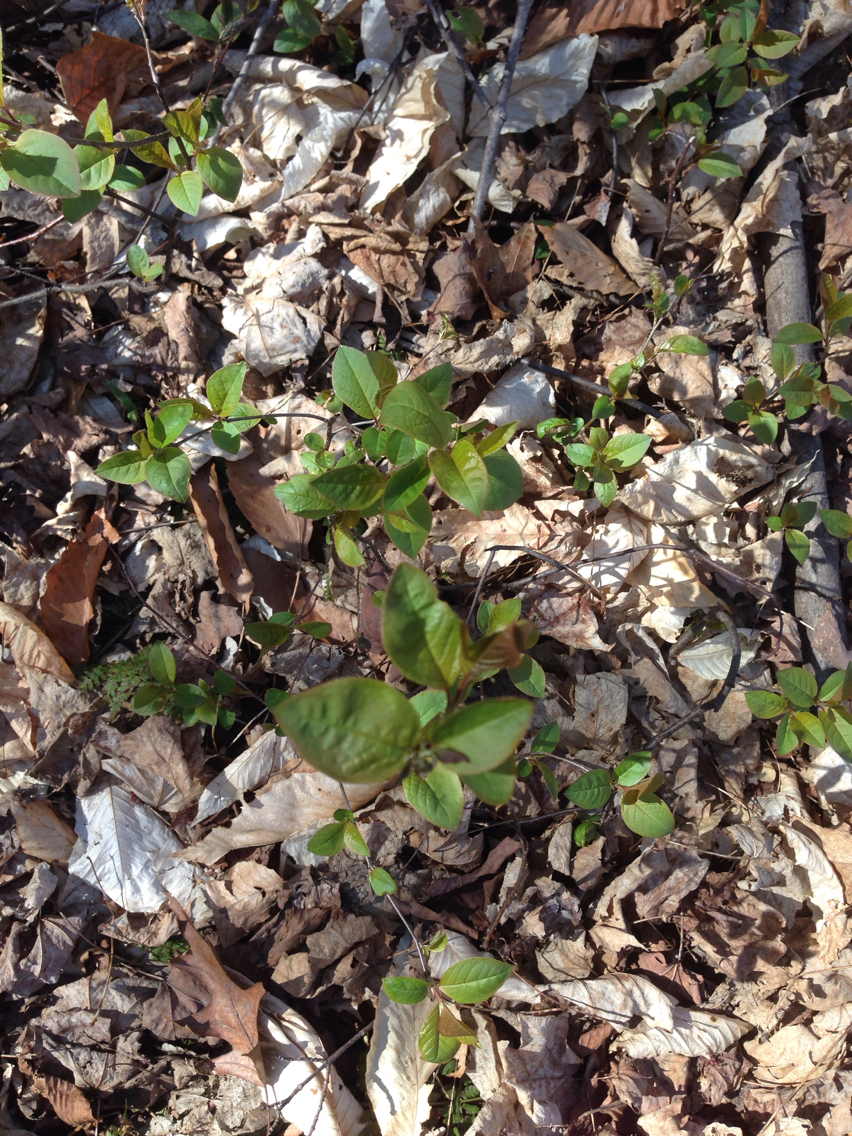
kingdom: Plantae
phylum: Tracheophyta
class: Magnoliopsida
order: Rosales
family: Rosaceae
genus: Prunus
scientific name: Prunus virginiana
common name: Chokecherry
